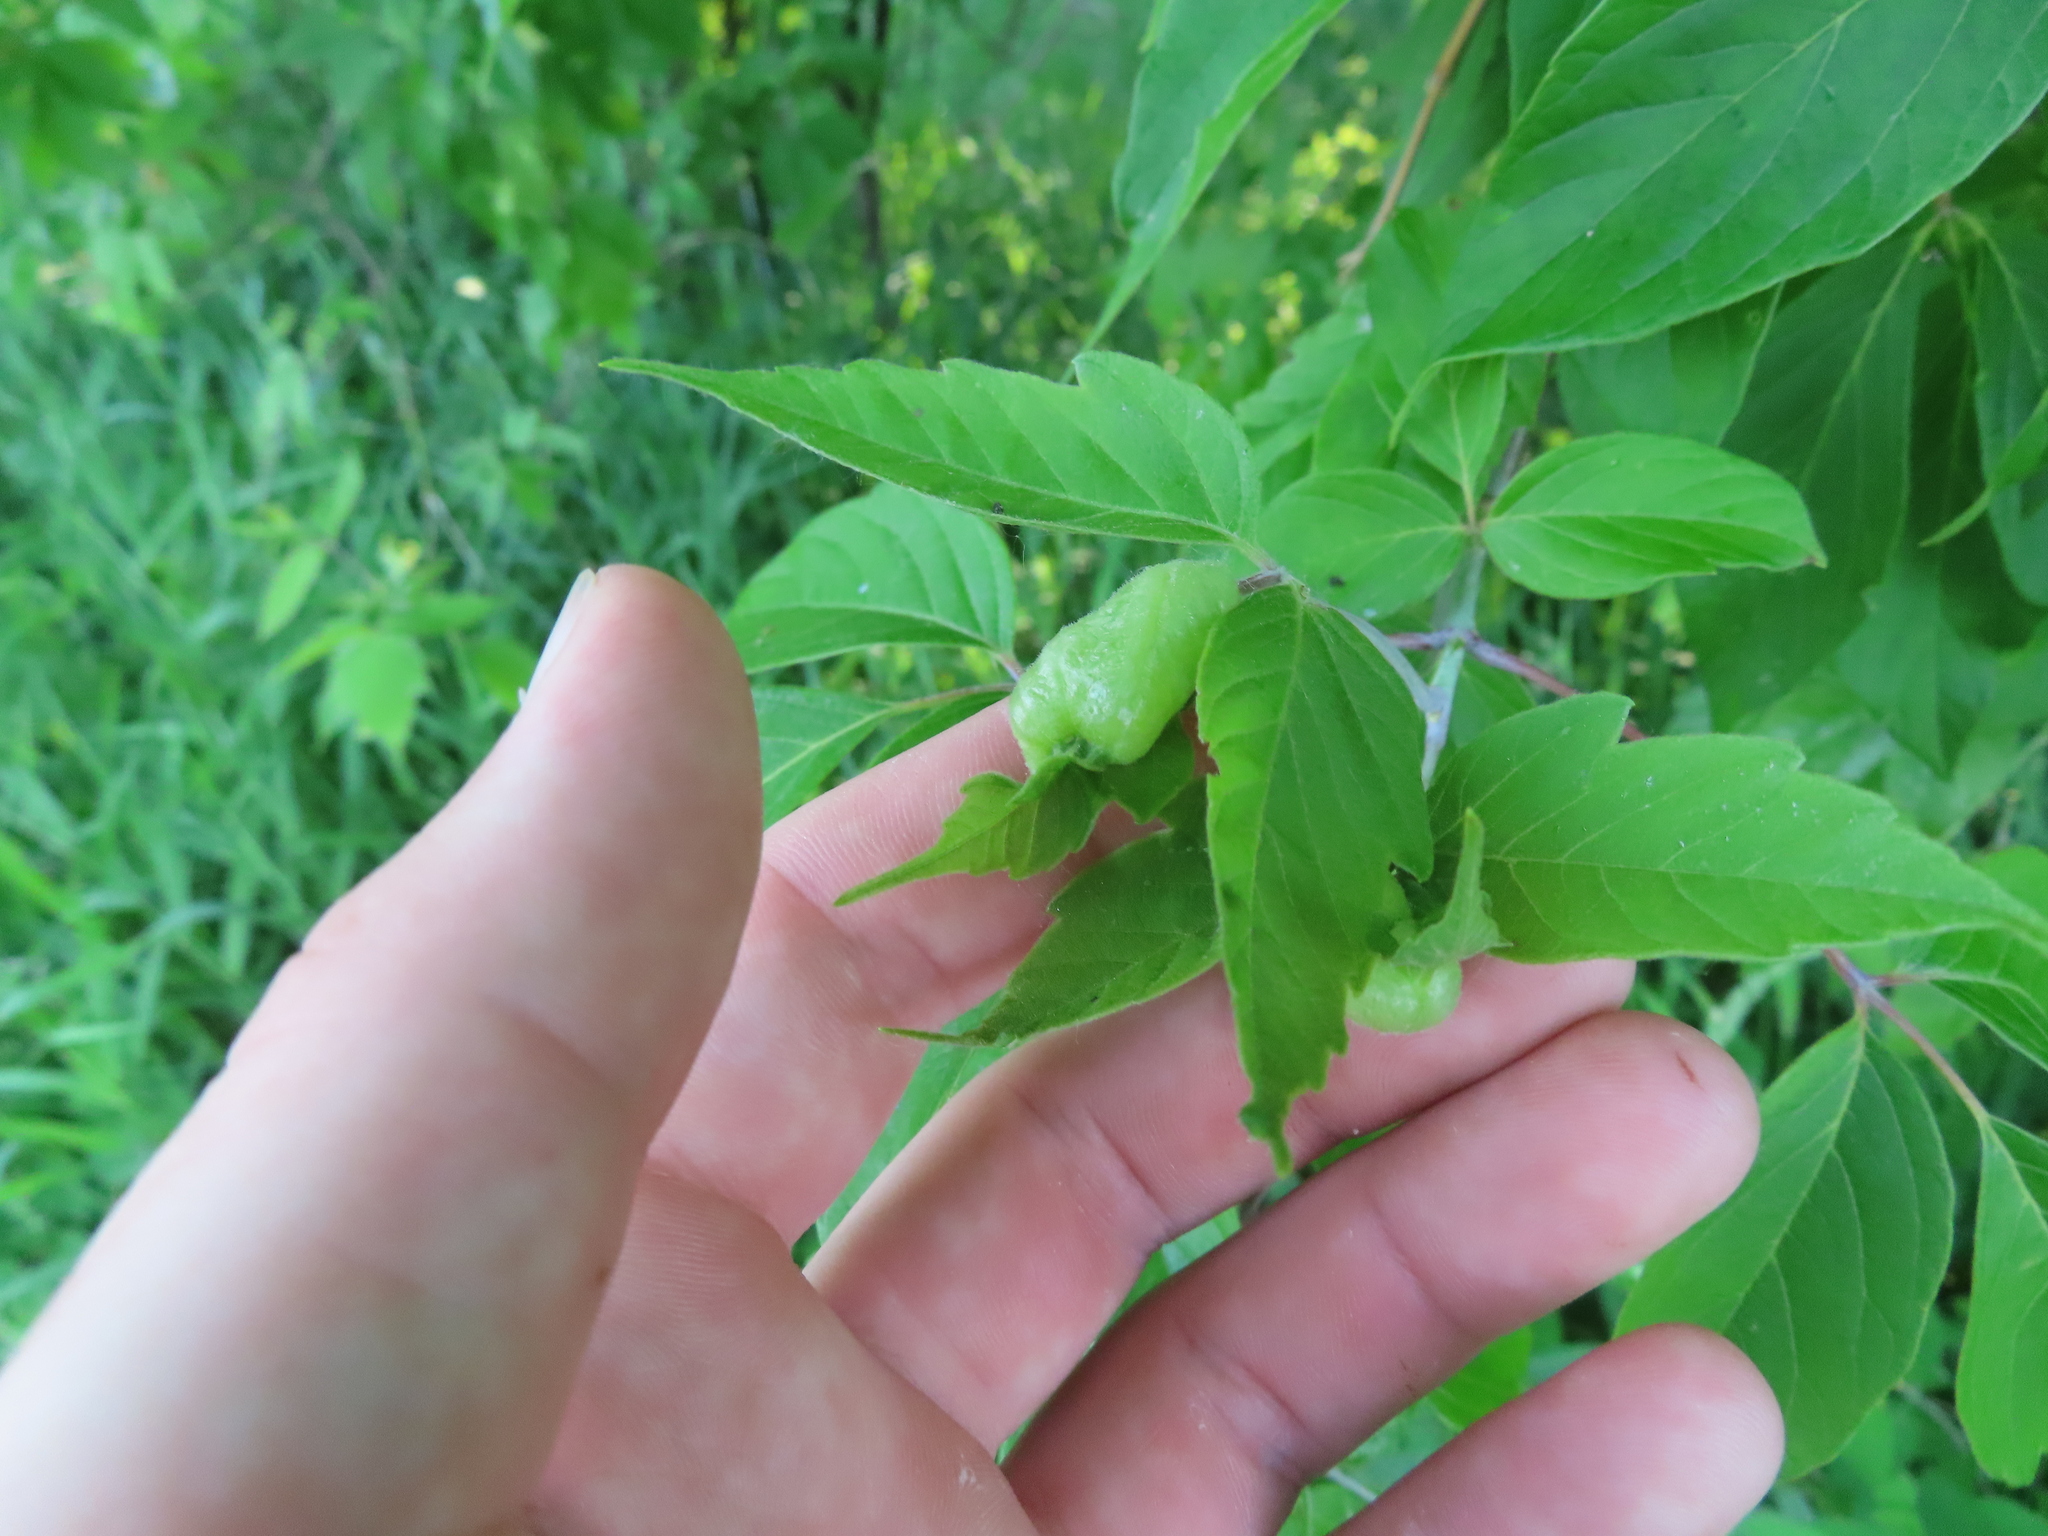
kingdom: Animalia
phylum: Arthropoda
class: Insecta
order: Diptera
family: Cecidomyiidae
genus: Contarinia
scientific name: Contarinia negundinis
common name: Boxelder budgall midge
